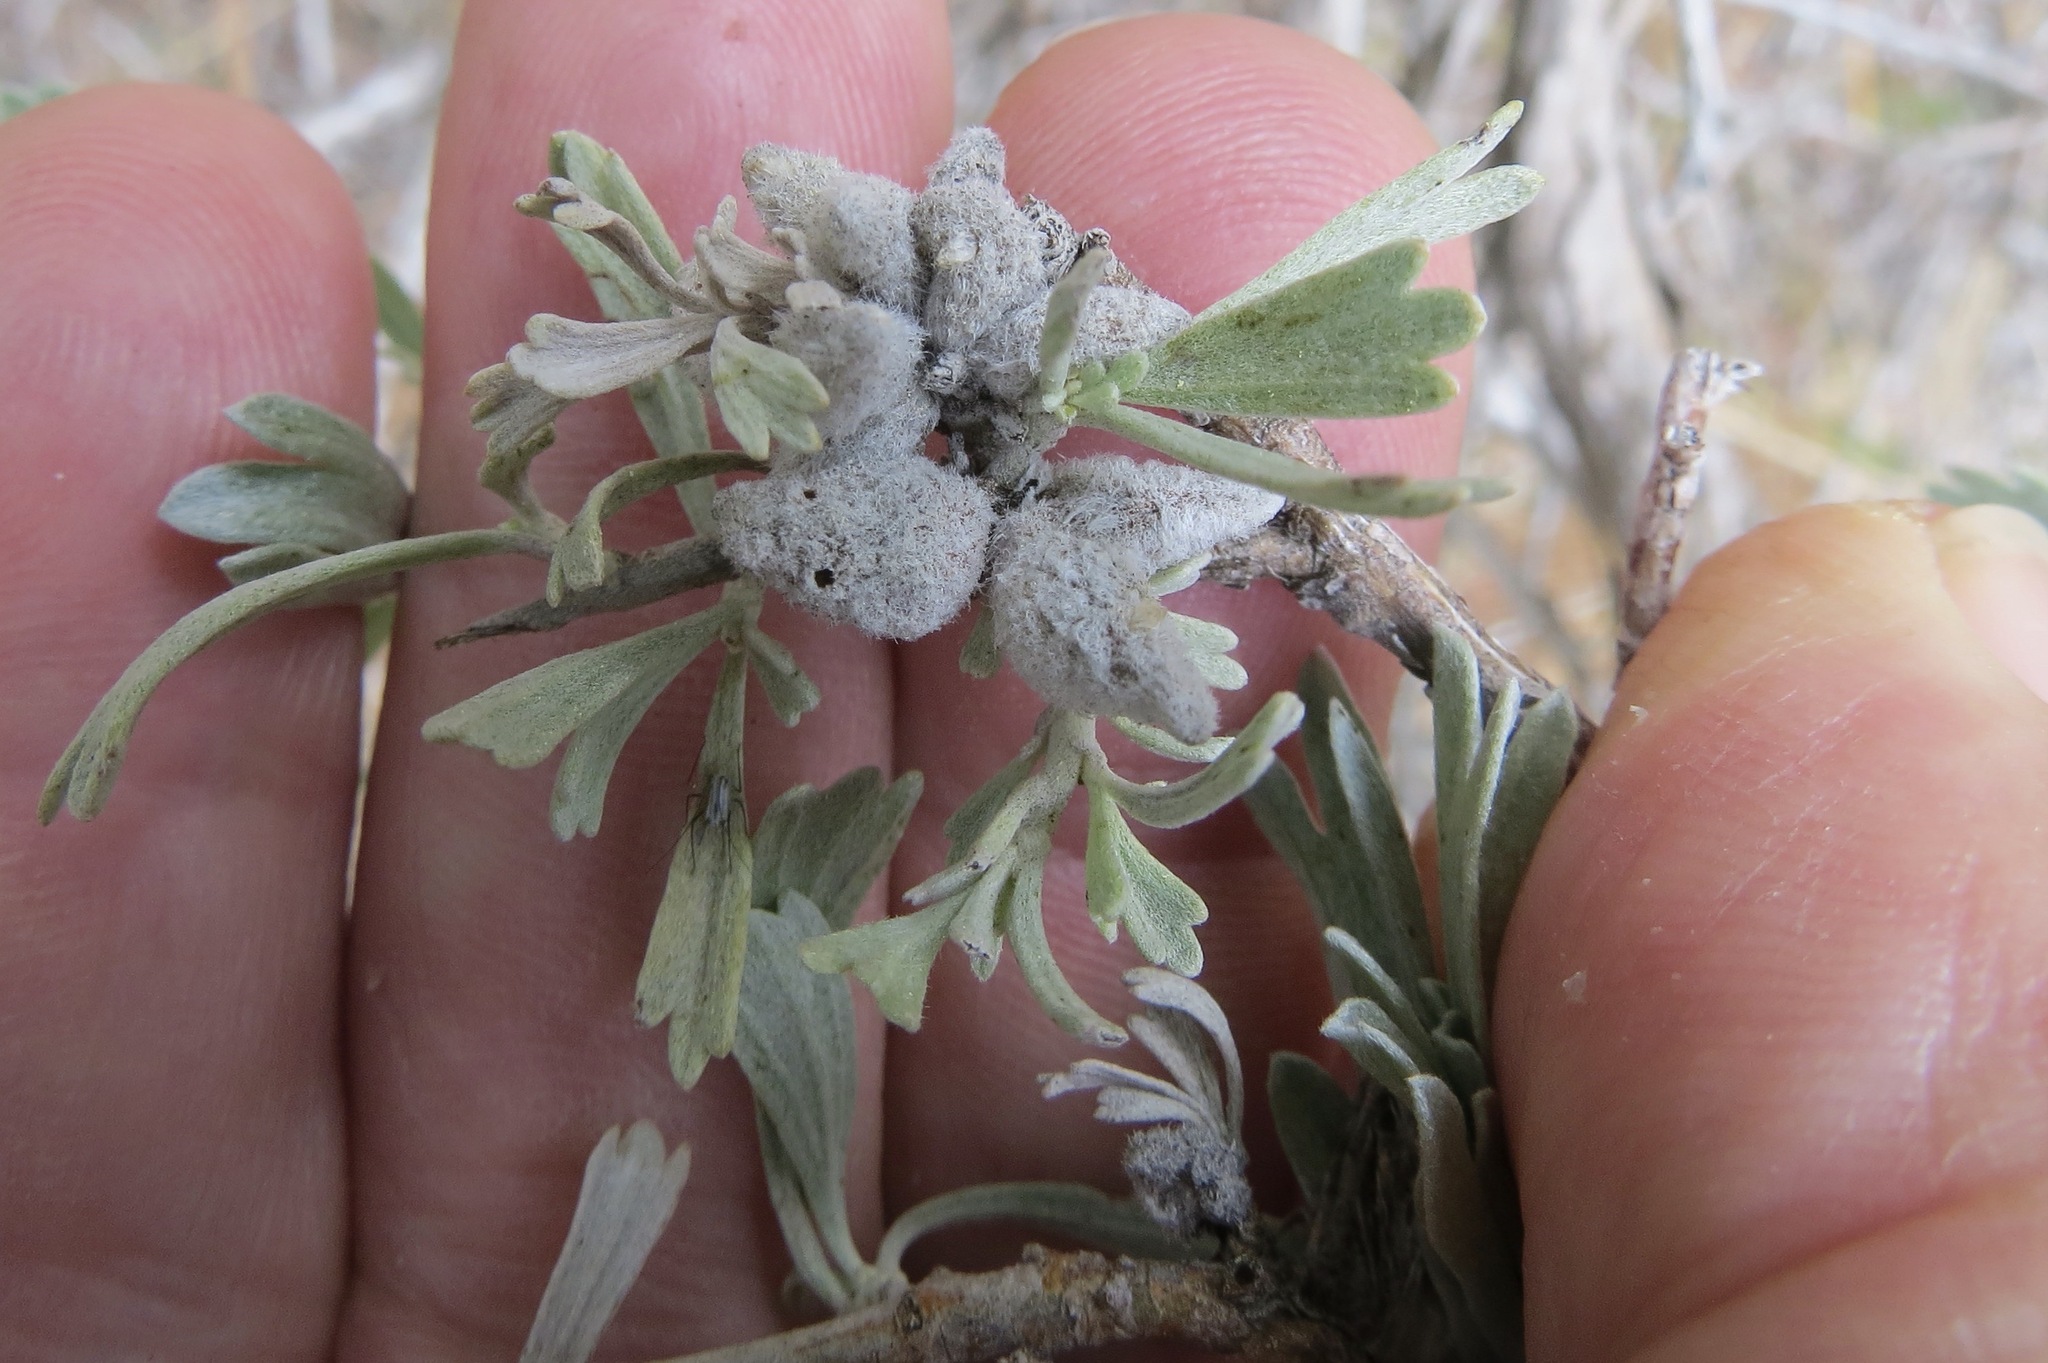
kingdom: Animalia
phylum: Arthropoda
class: Insecta
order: Diptera
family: Cecidomyiidae
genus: Rhopalomyia
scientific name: Rhopalomyia nucula
